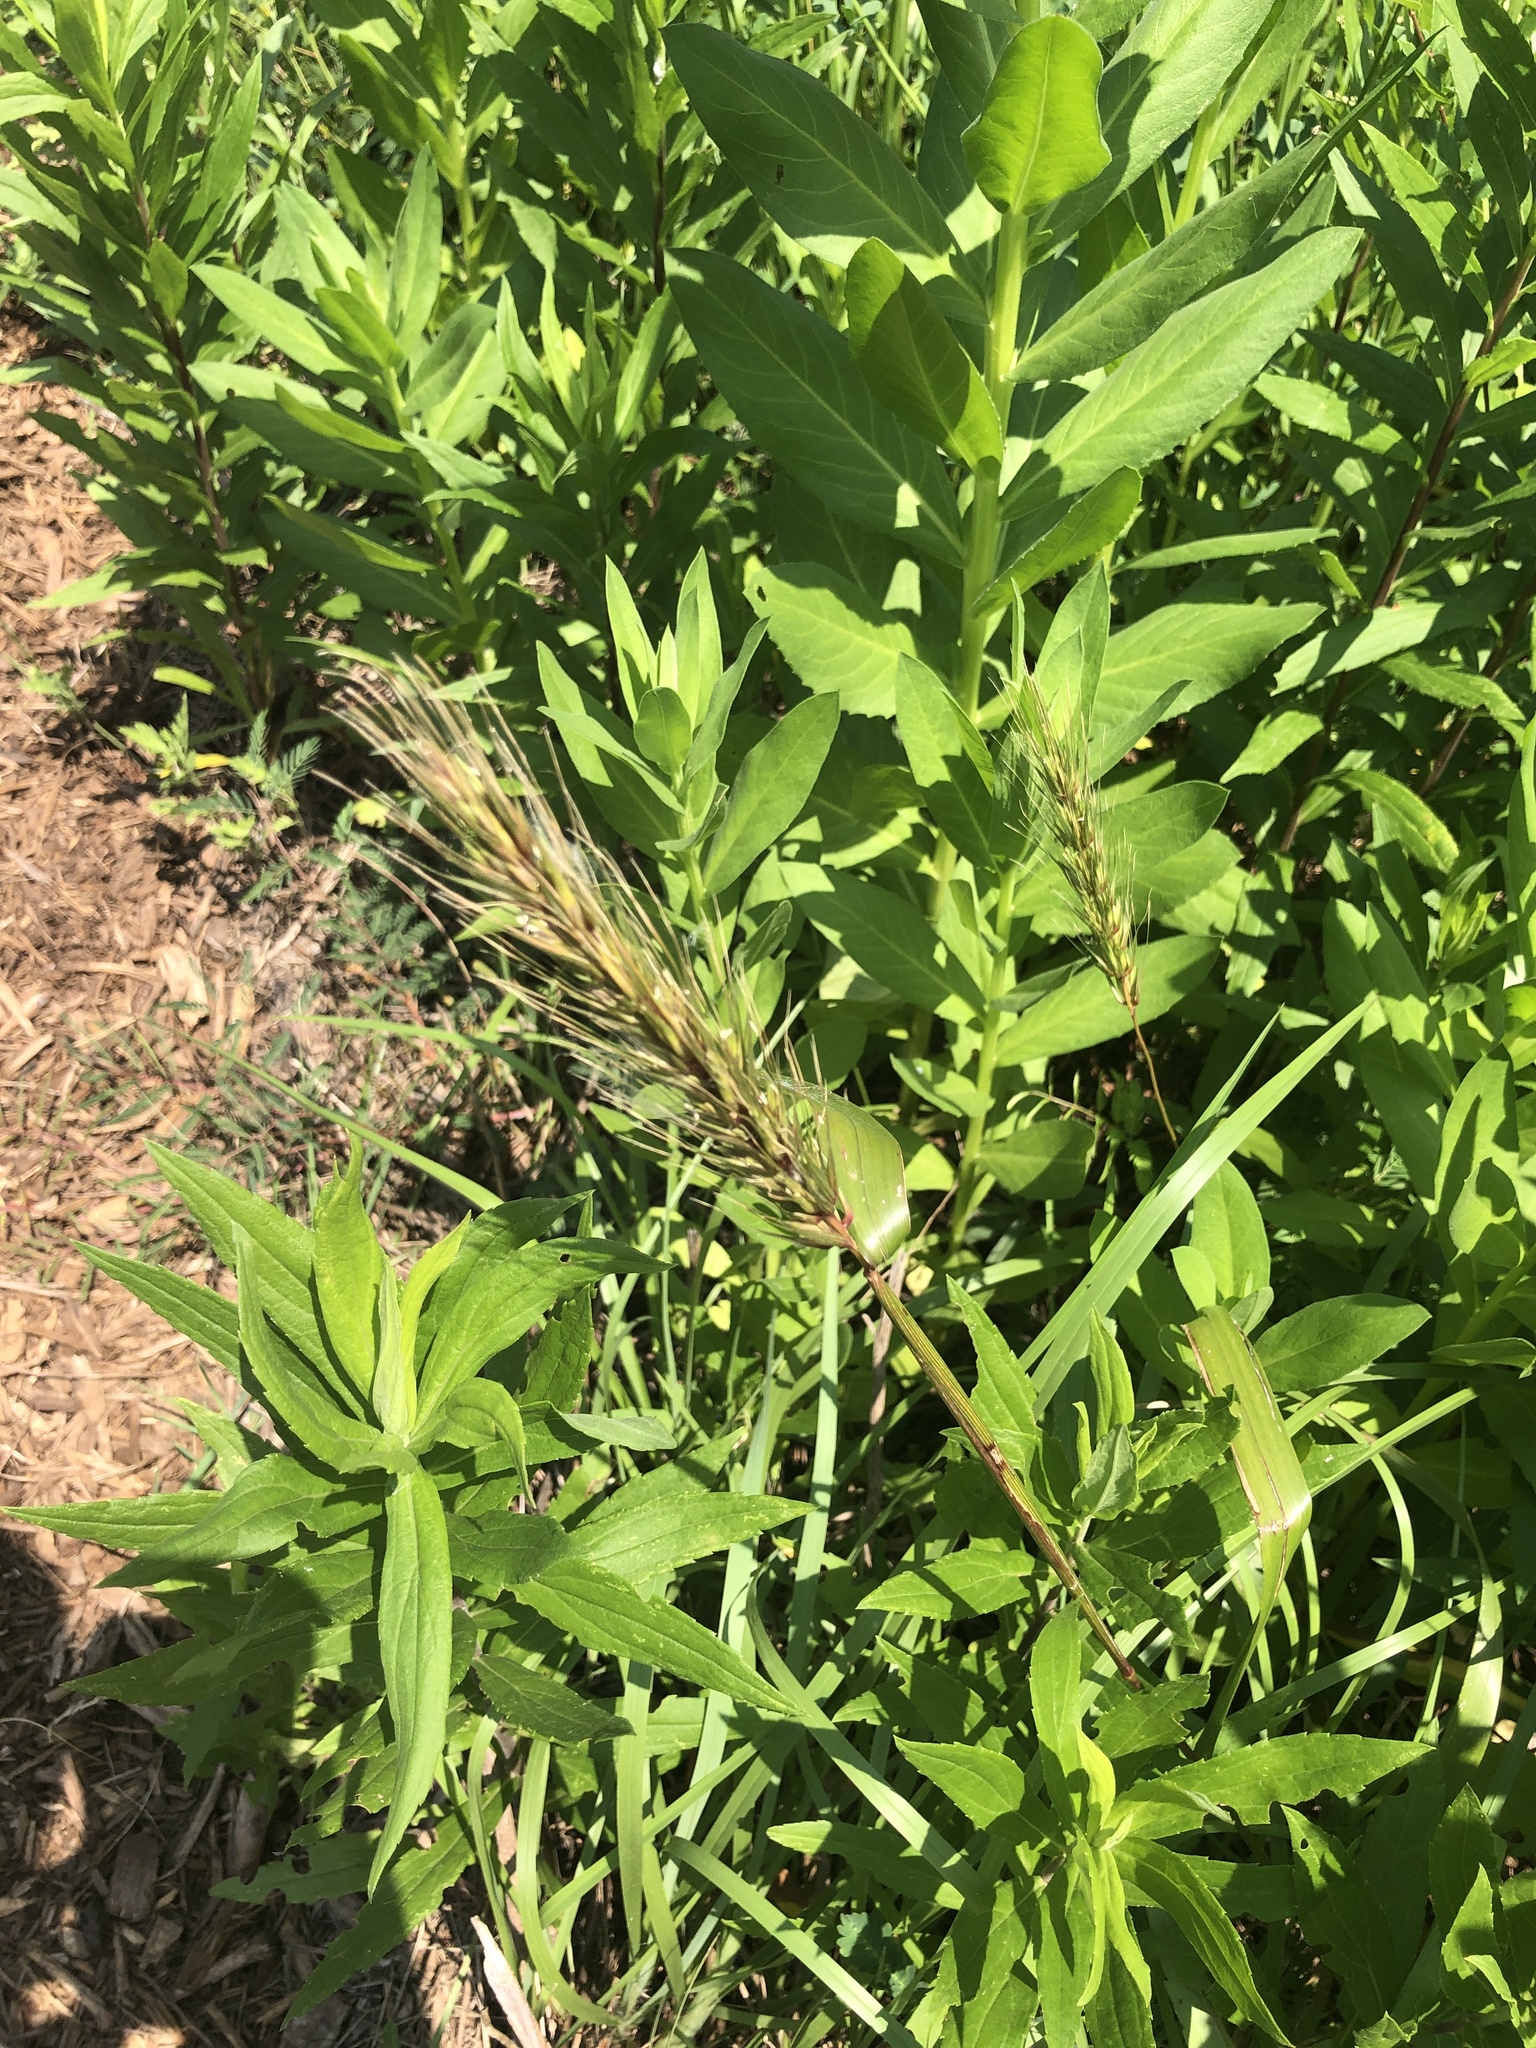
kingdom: Plantae
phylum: Tracheophyta
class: Liliopsida
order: Poales
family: Poaceae
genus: Elymus
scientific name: Elymus virginicus
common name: Common eastern wildrye
